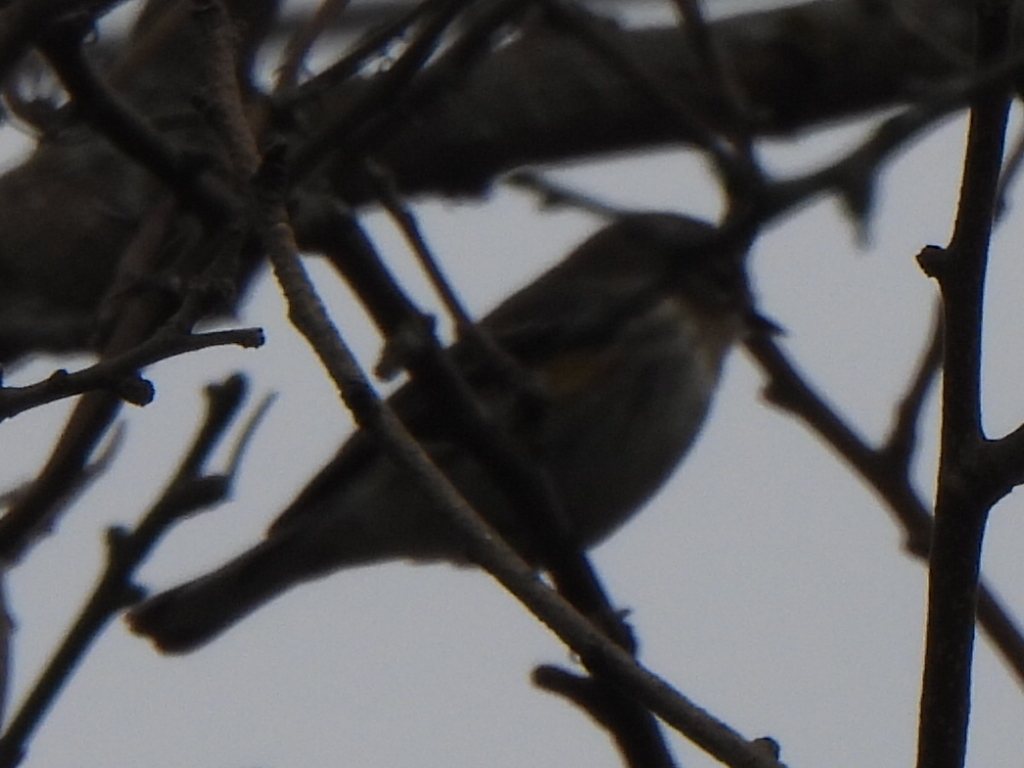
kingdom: Animalia
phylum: Chordata
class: Aves
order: Passeriformes
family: Parulidae
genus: Setophaga
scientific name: Setophaga coronata
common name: Myrtle warbler
